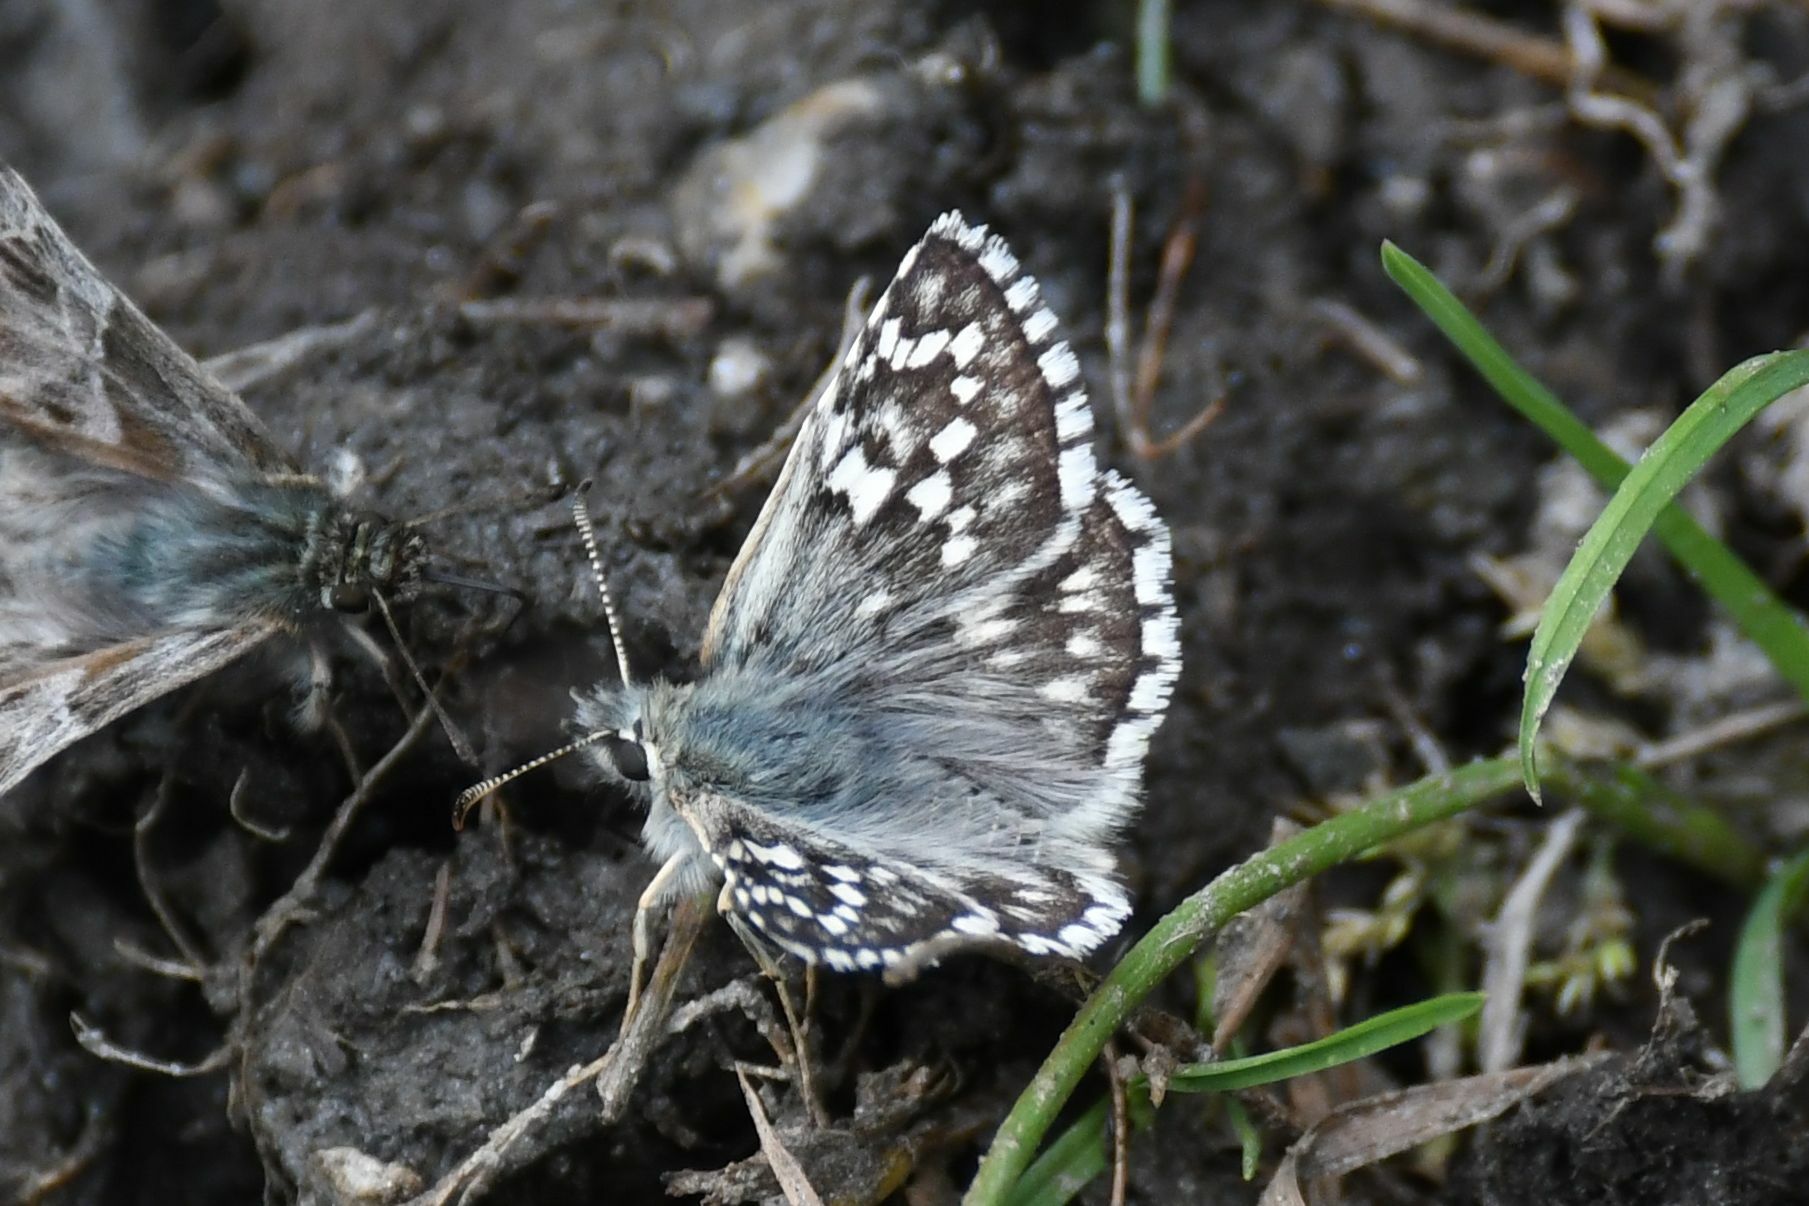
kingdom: Animalia
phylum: Arthropoda
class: Insecta
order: Lepidoptera
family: Hesperiidae
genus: Pyrgus
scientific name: Pyrgus fritillarius
